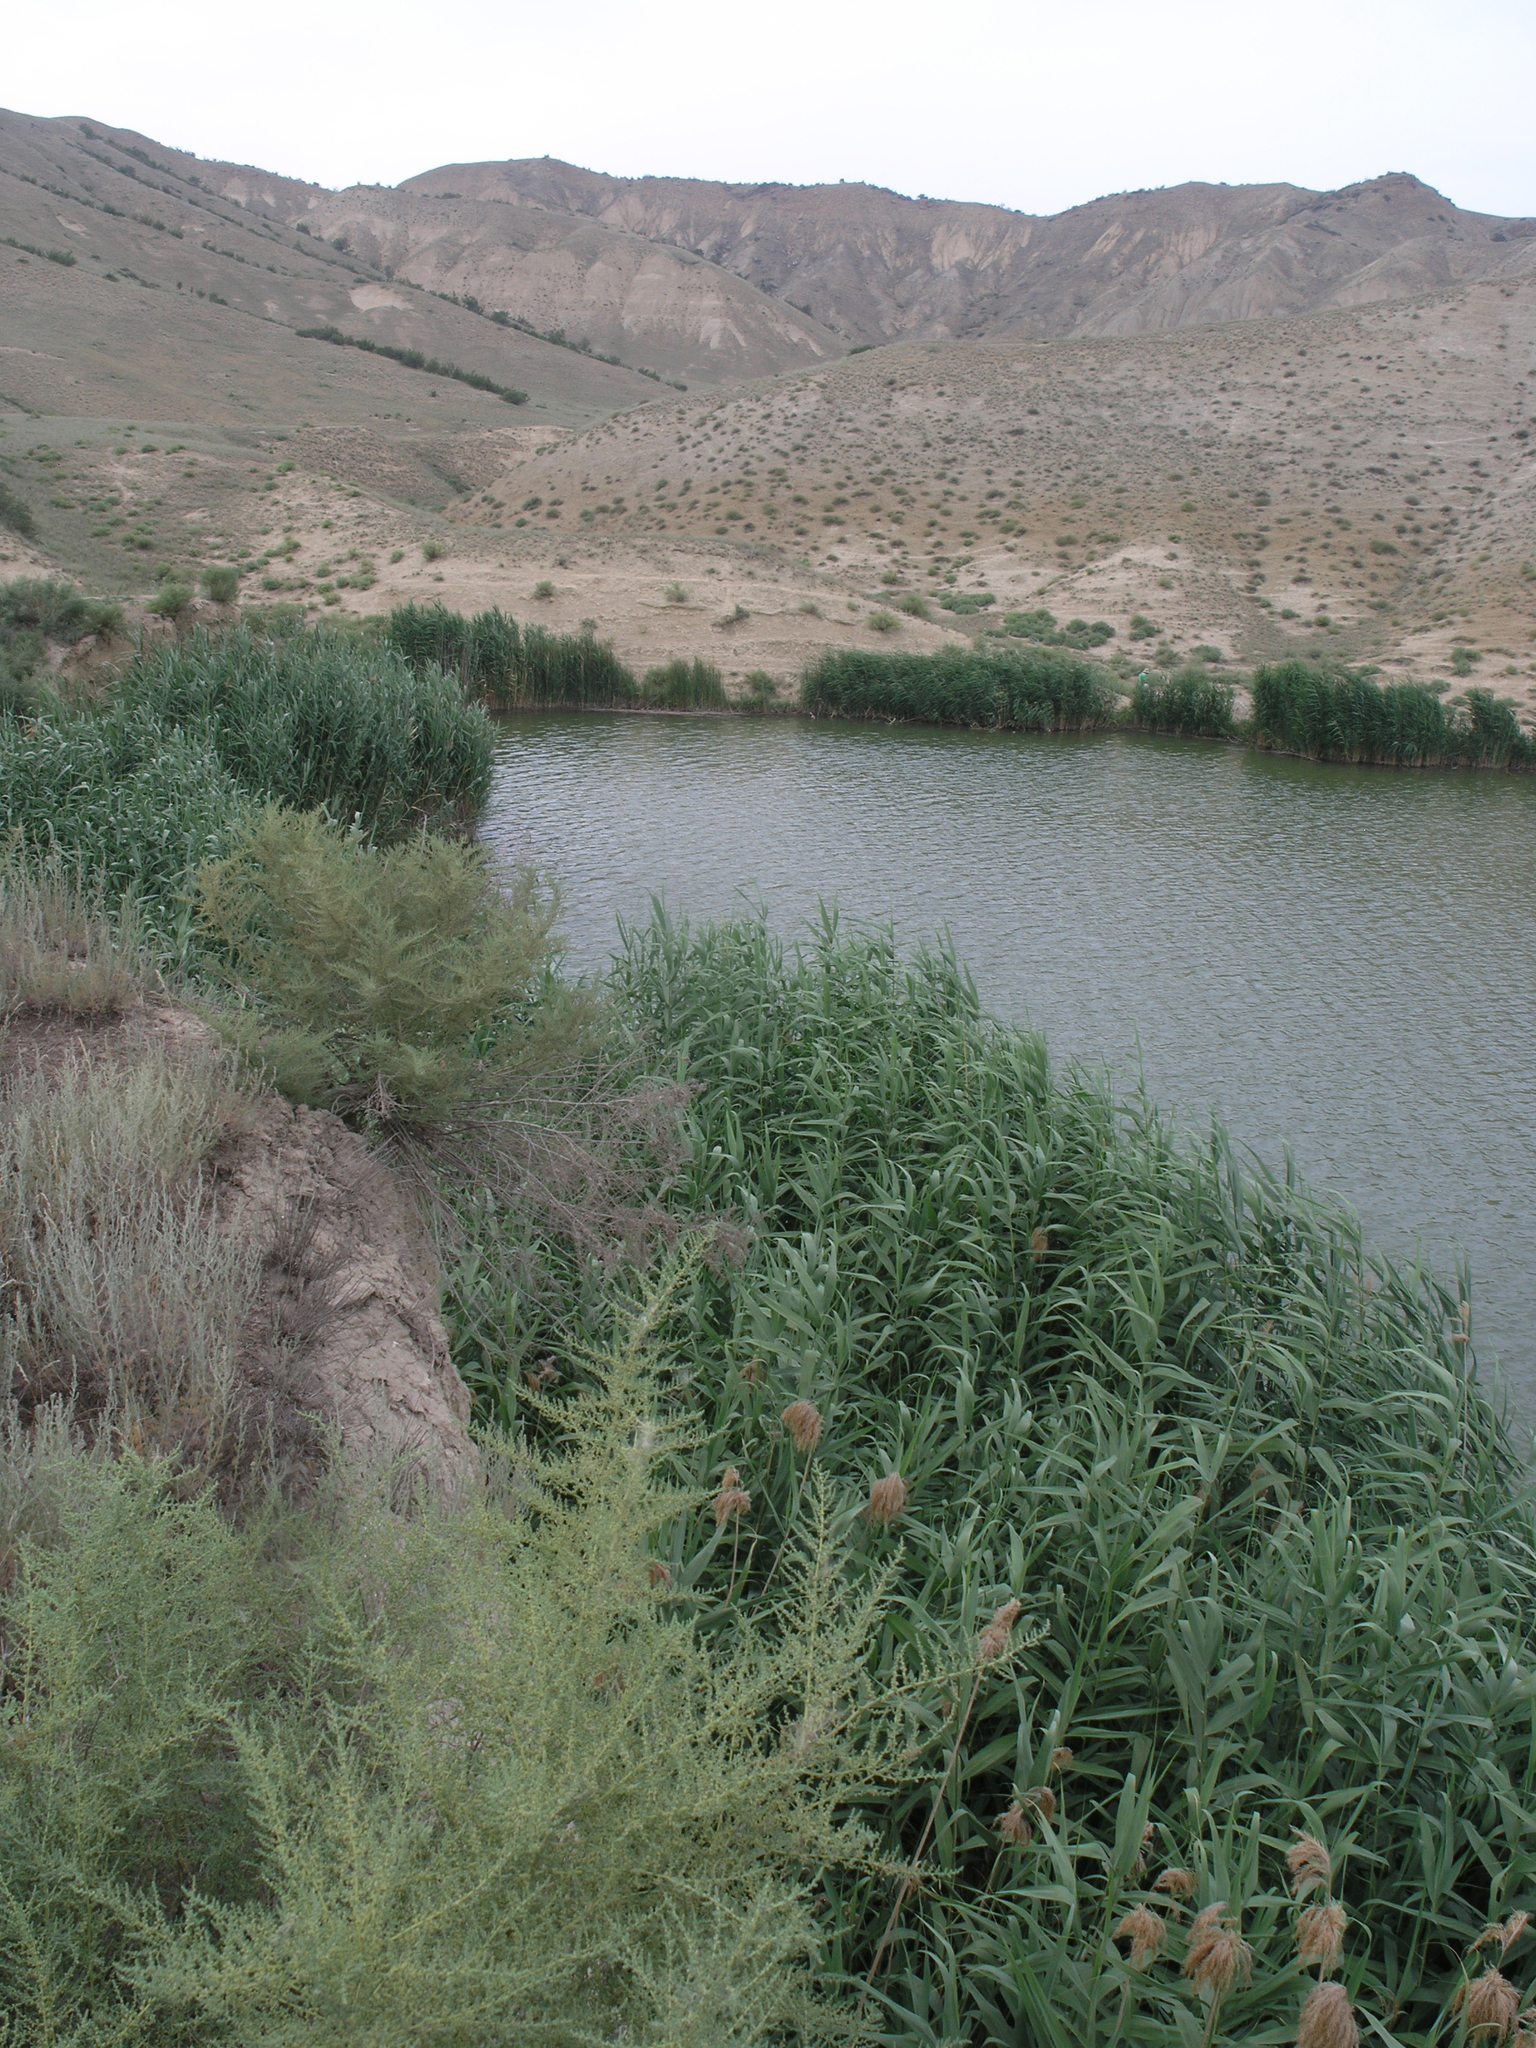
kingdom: Plantae
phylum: Tracheophyta
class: Liliopsida
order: Poales
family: Poaceae
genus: Phragmites
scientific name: Phragmites australis
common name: Common reed
